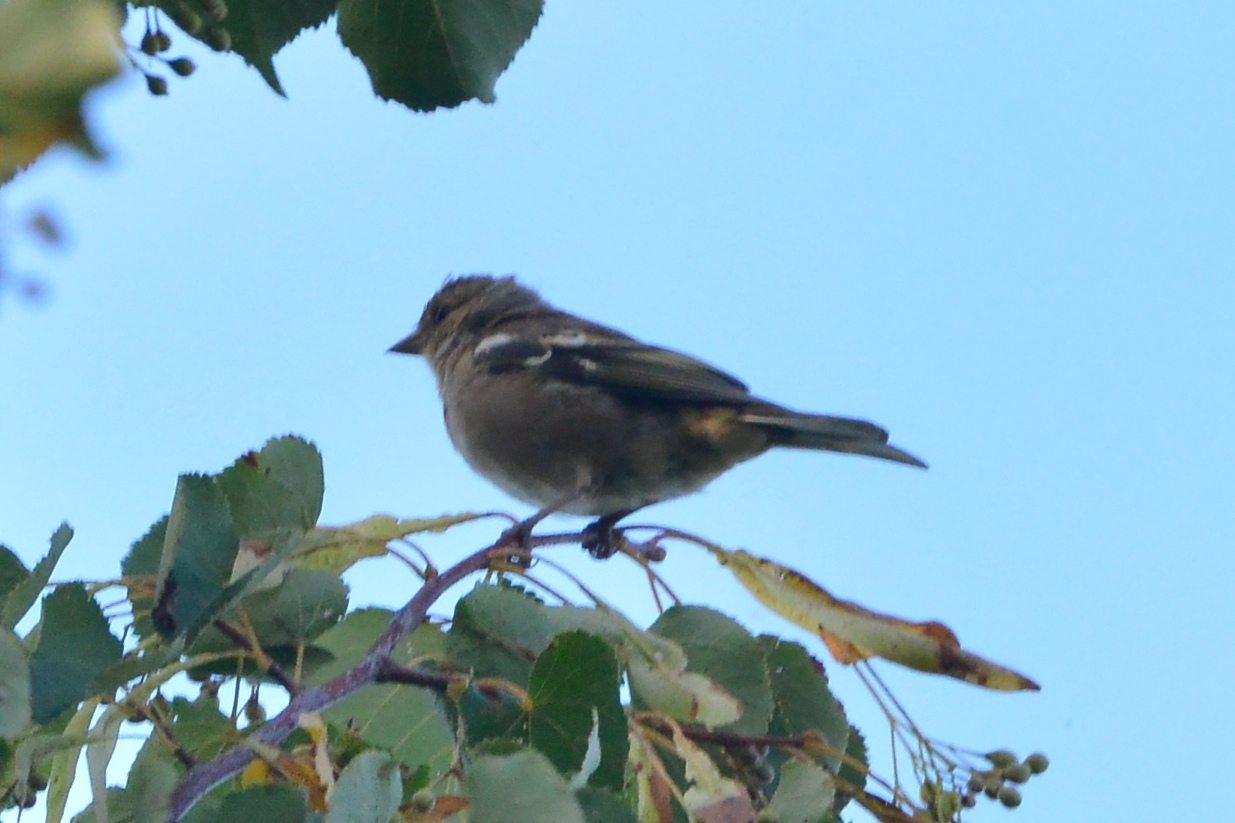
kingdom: Animalia
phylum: Chordata
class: Aves
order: Passeriformes
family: Fringillidae
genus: Fringilla
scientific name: Fringilla coelebs
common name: Common chaffinch
